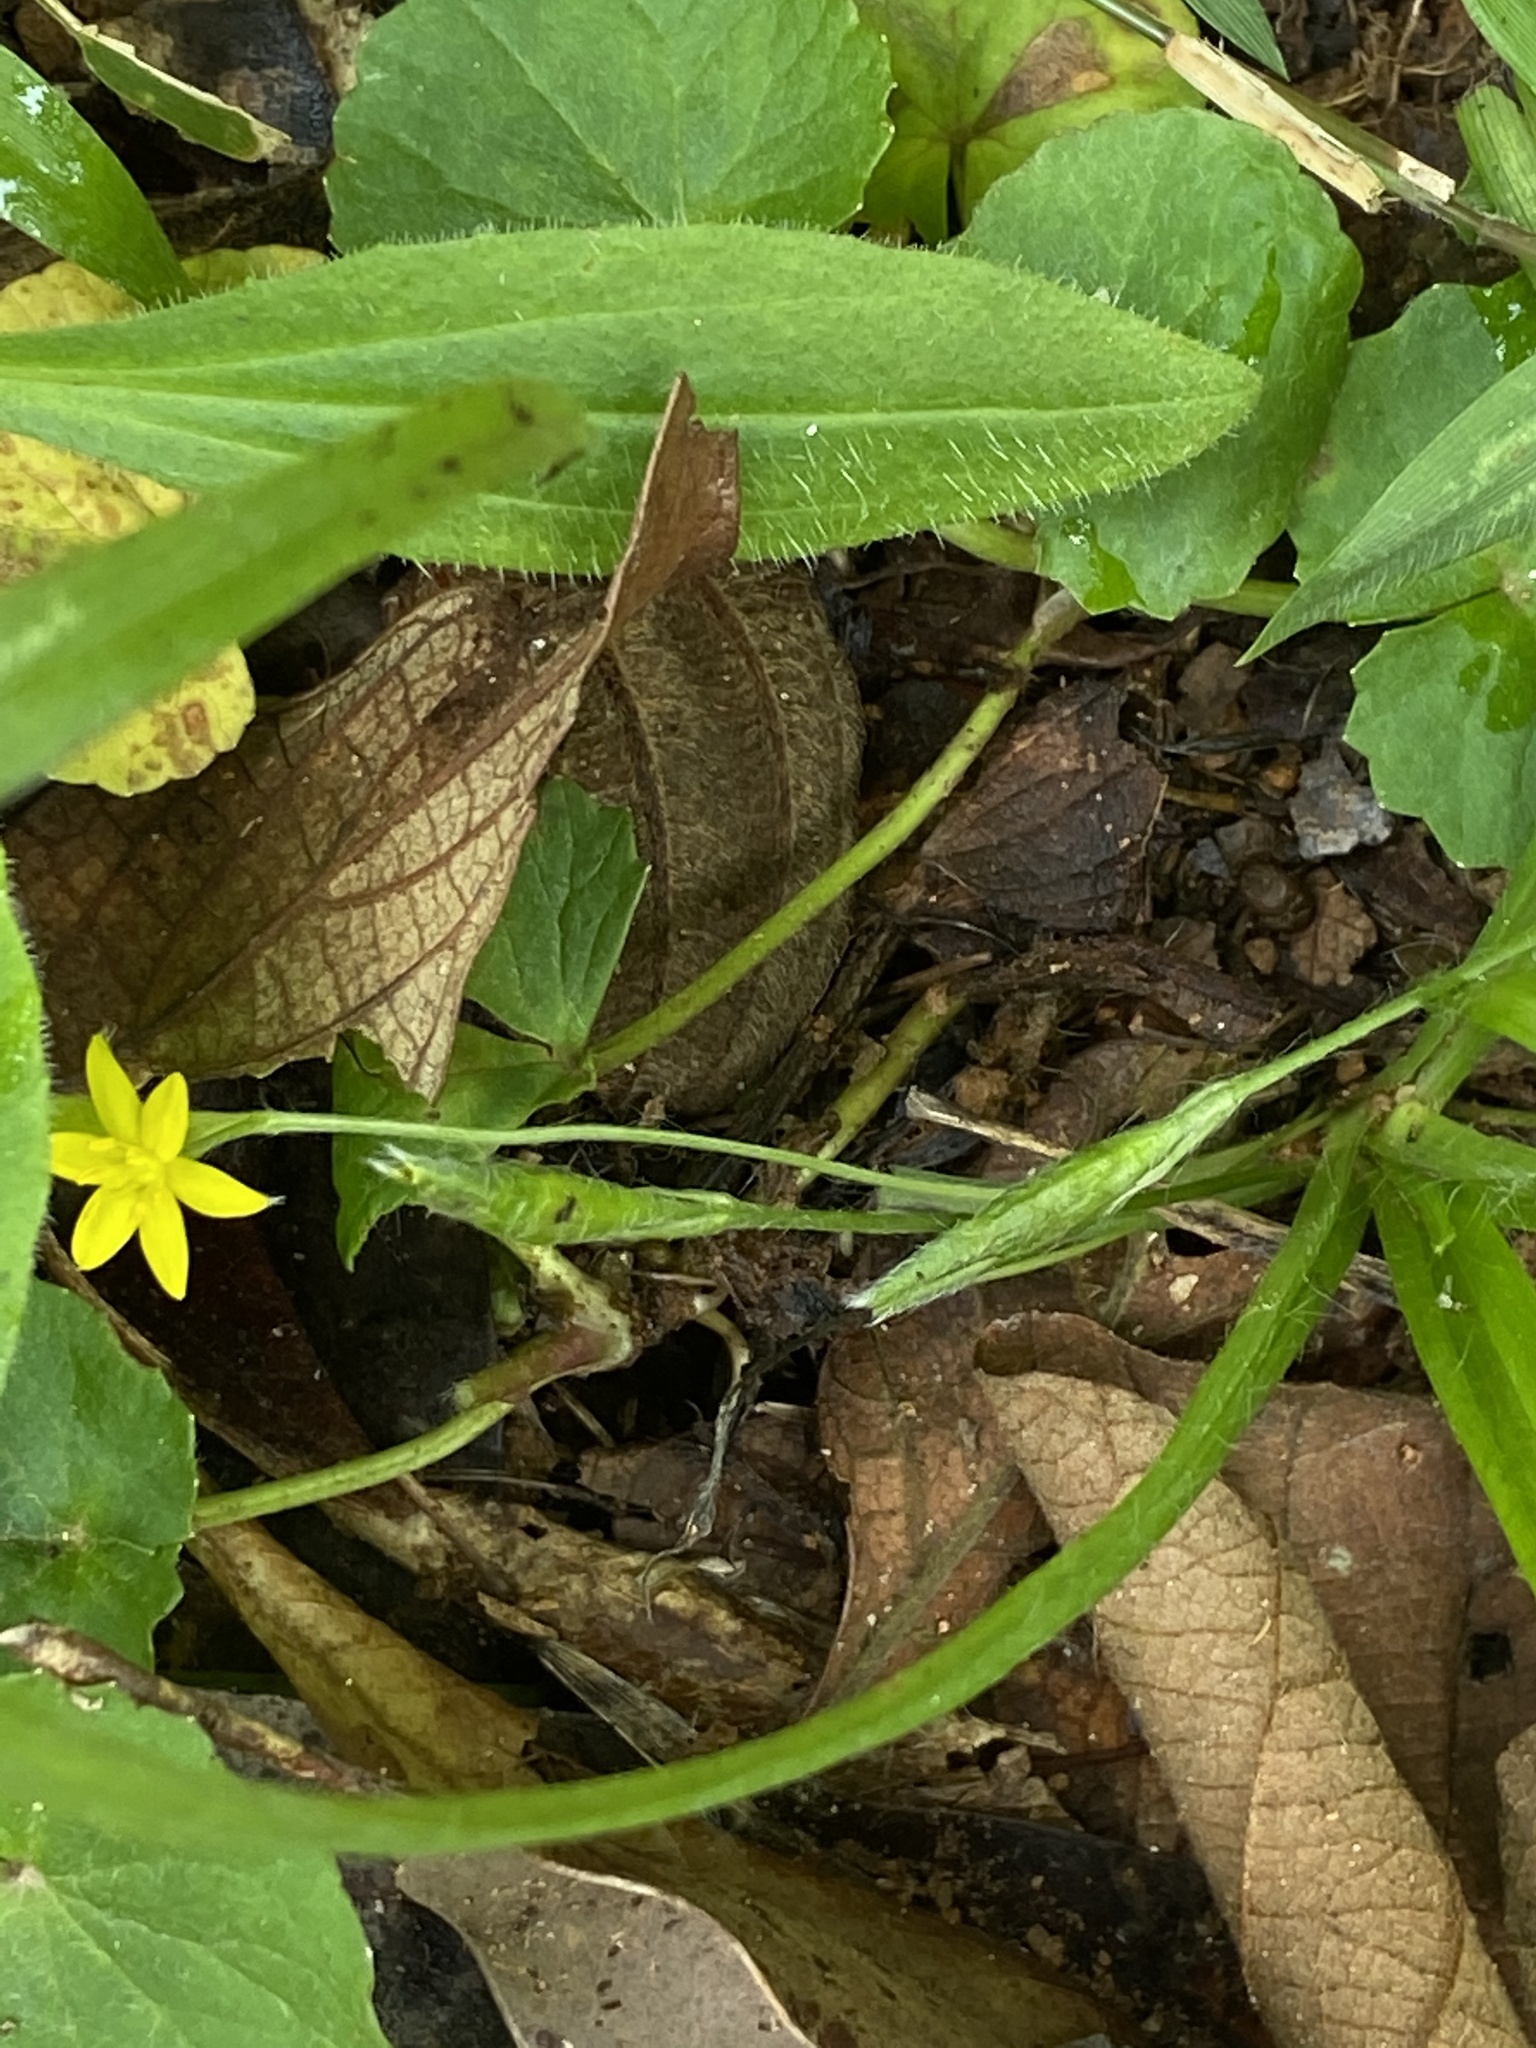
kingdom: Plantae
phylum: Tracheophyta
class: Liliopsida
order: Asparagales
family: Hypoxidaceae
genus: Hypoxis
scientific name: Hypoxis decumbens
